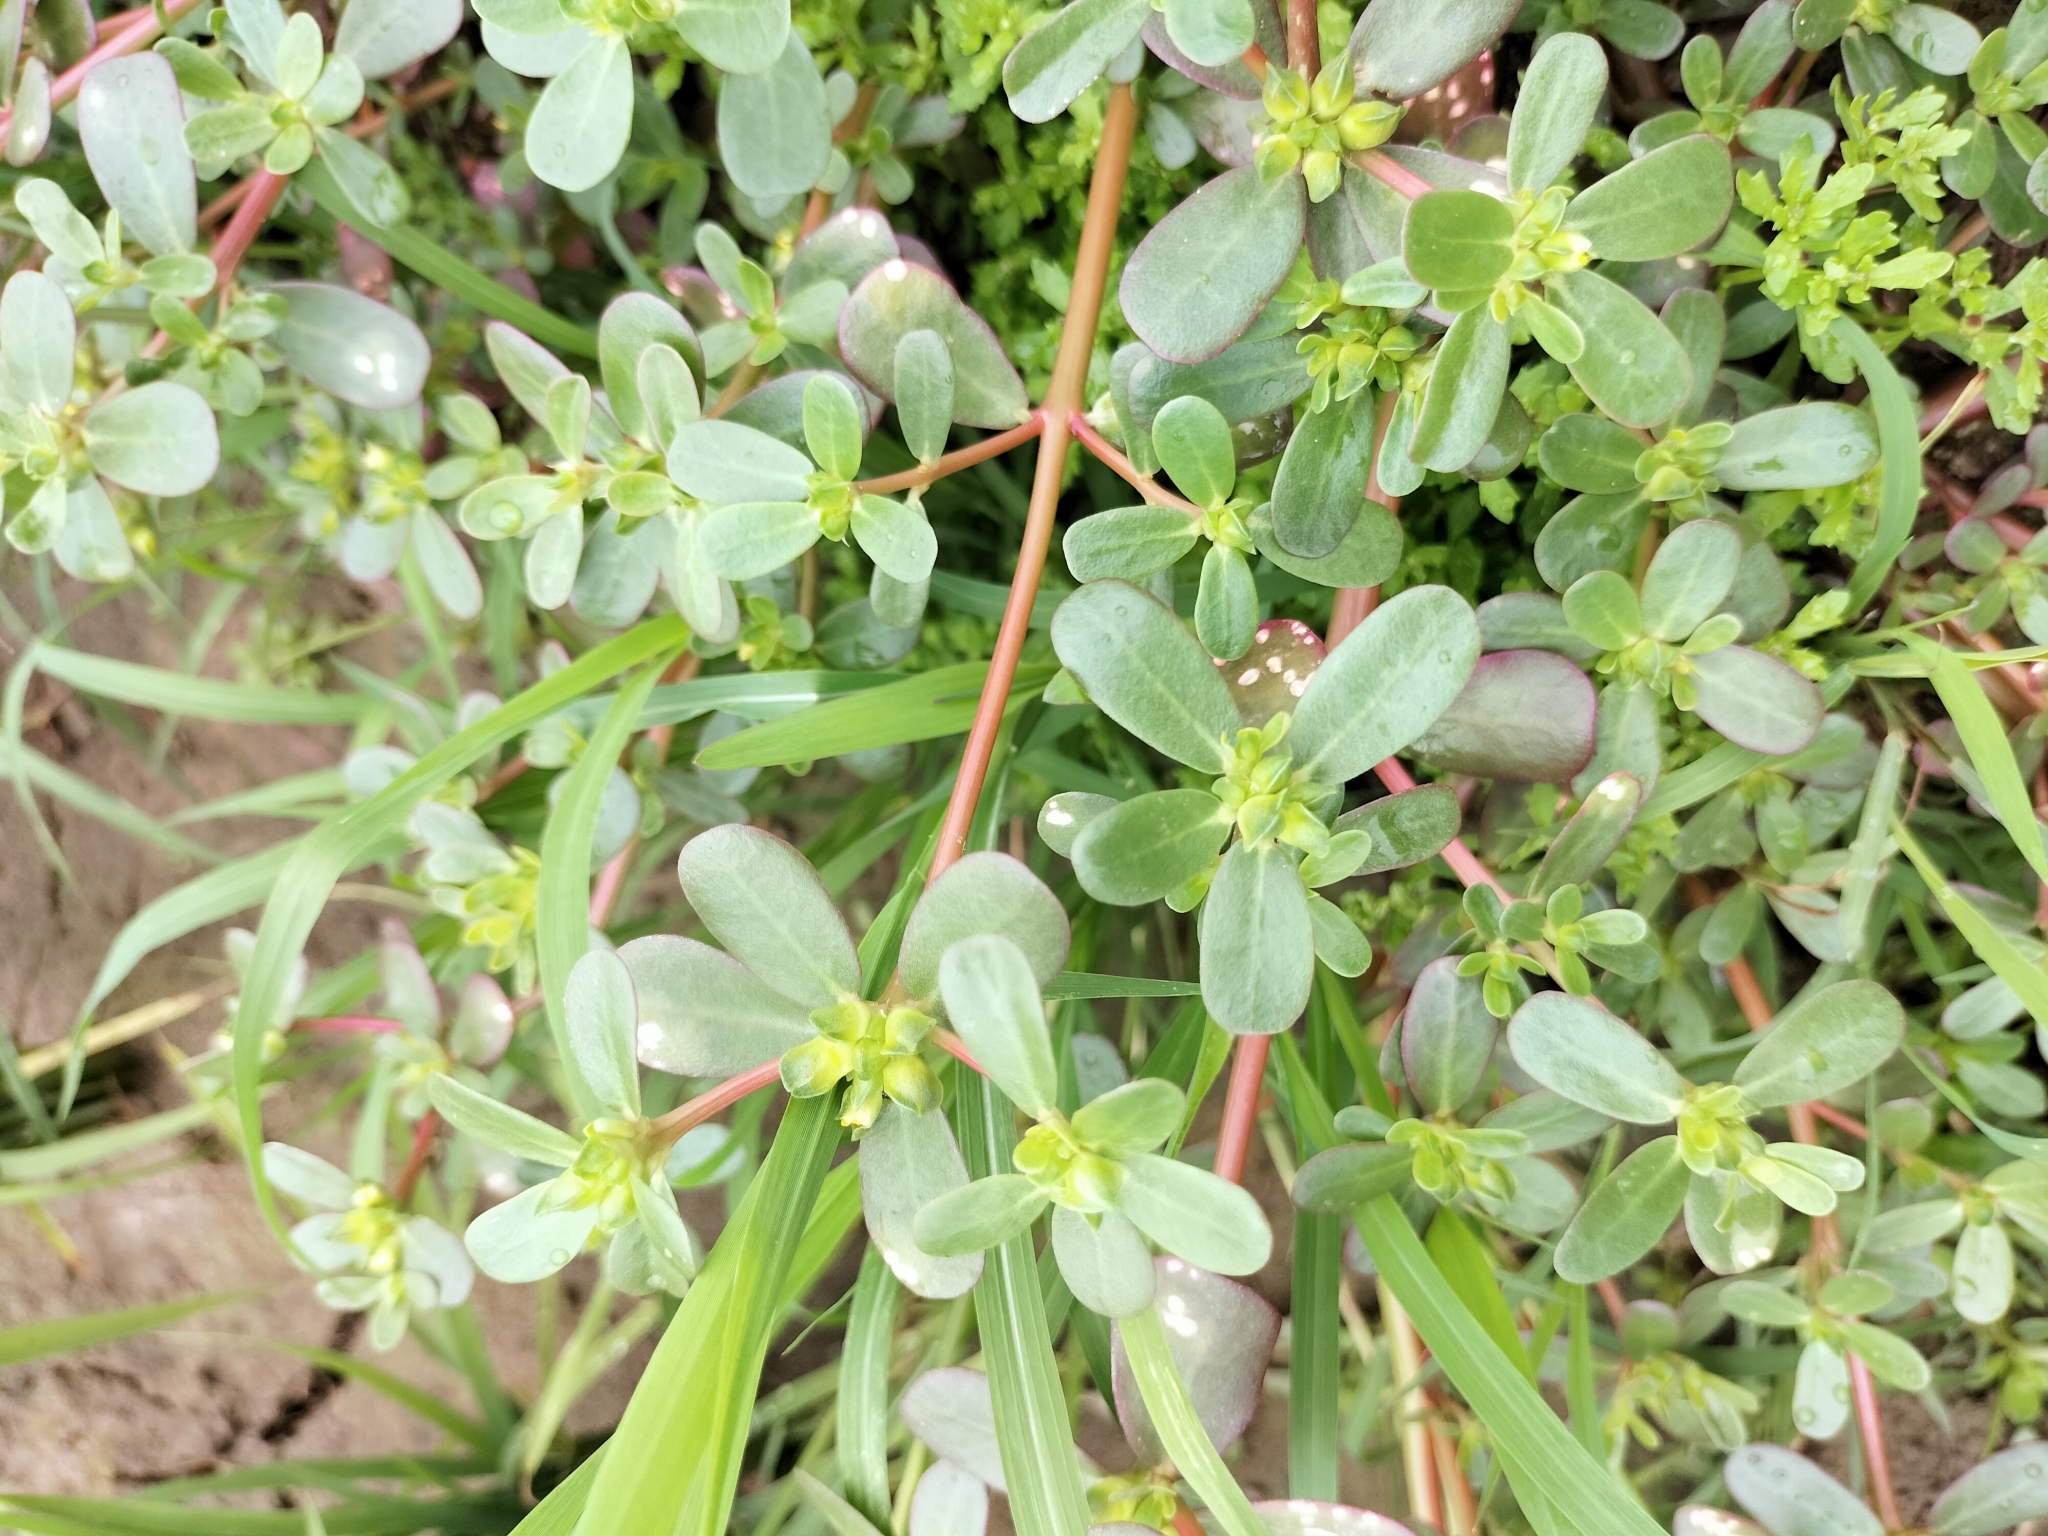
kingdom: Plantae
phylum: Tracheophyta
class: Magnoliopsida
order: Caryophyllales
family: Portulacaceae
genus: Portulaca
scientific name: Portulaca oleracea
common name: Common purslane
